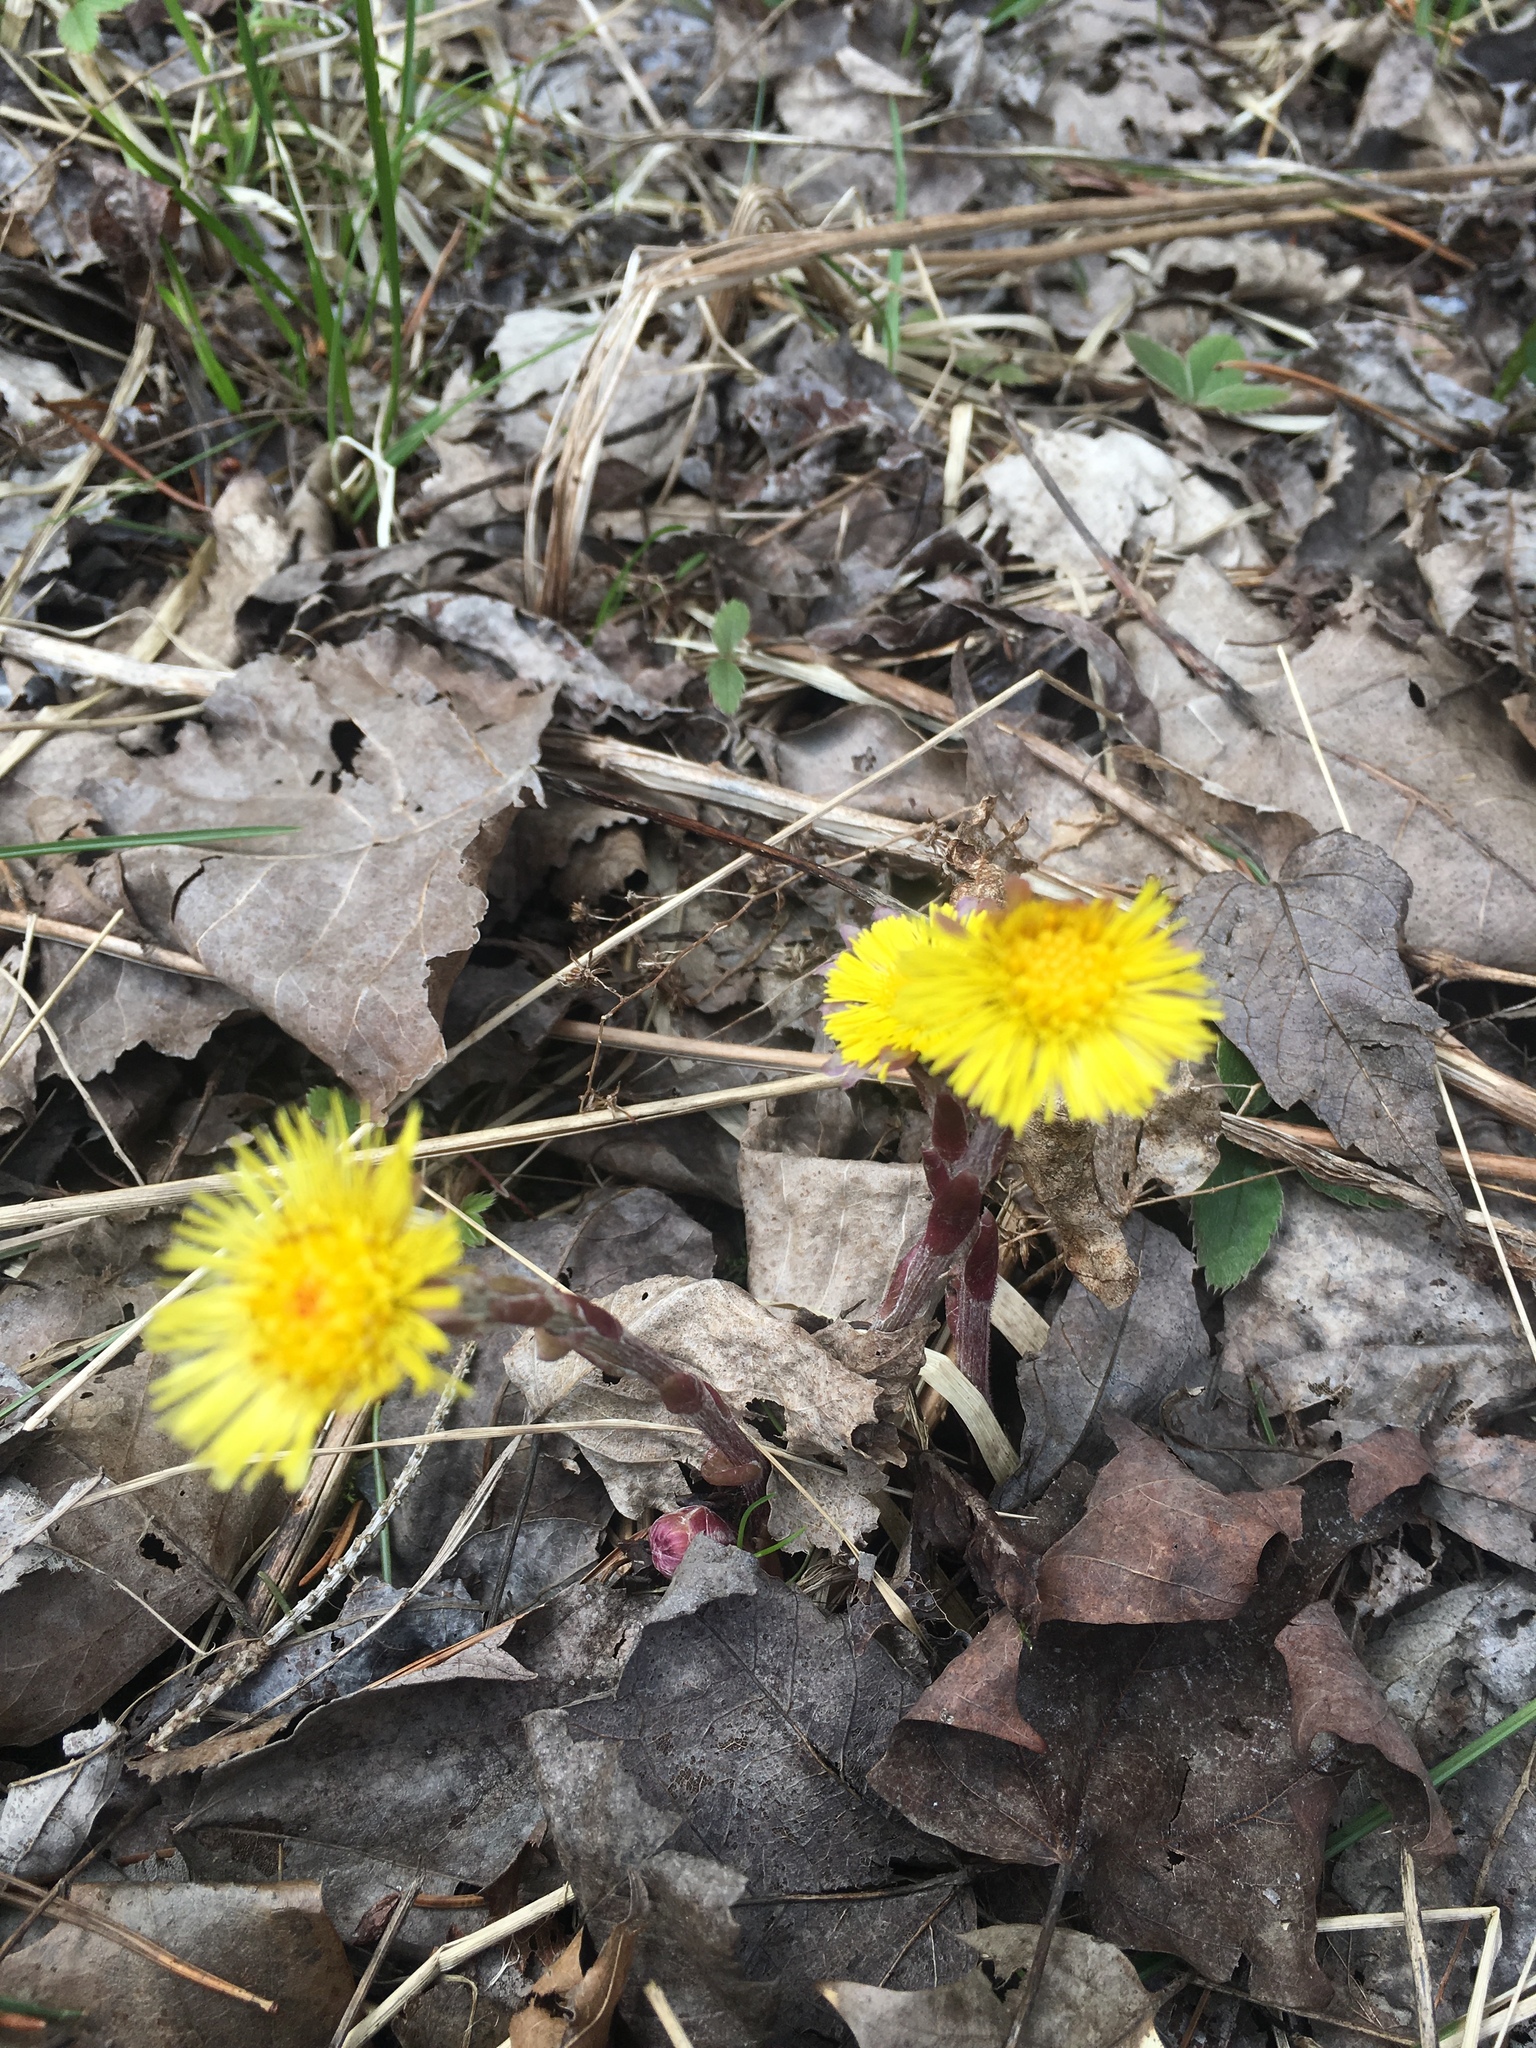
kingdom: Plantae
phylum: Tracheophyta
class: Magnoliopsida
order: Asterales
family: Asteraceae
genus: Tussilago
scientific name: Tussilago farfara
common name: Coltsfoot
